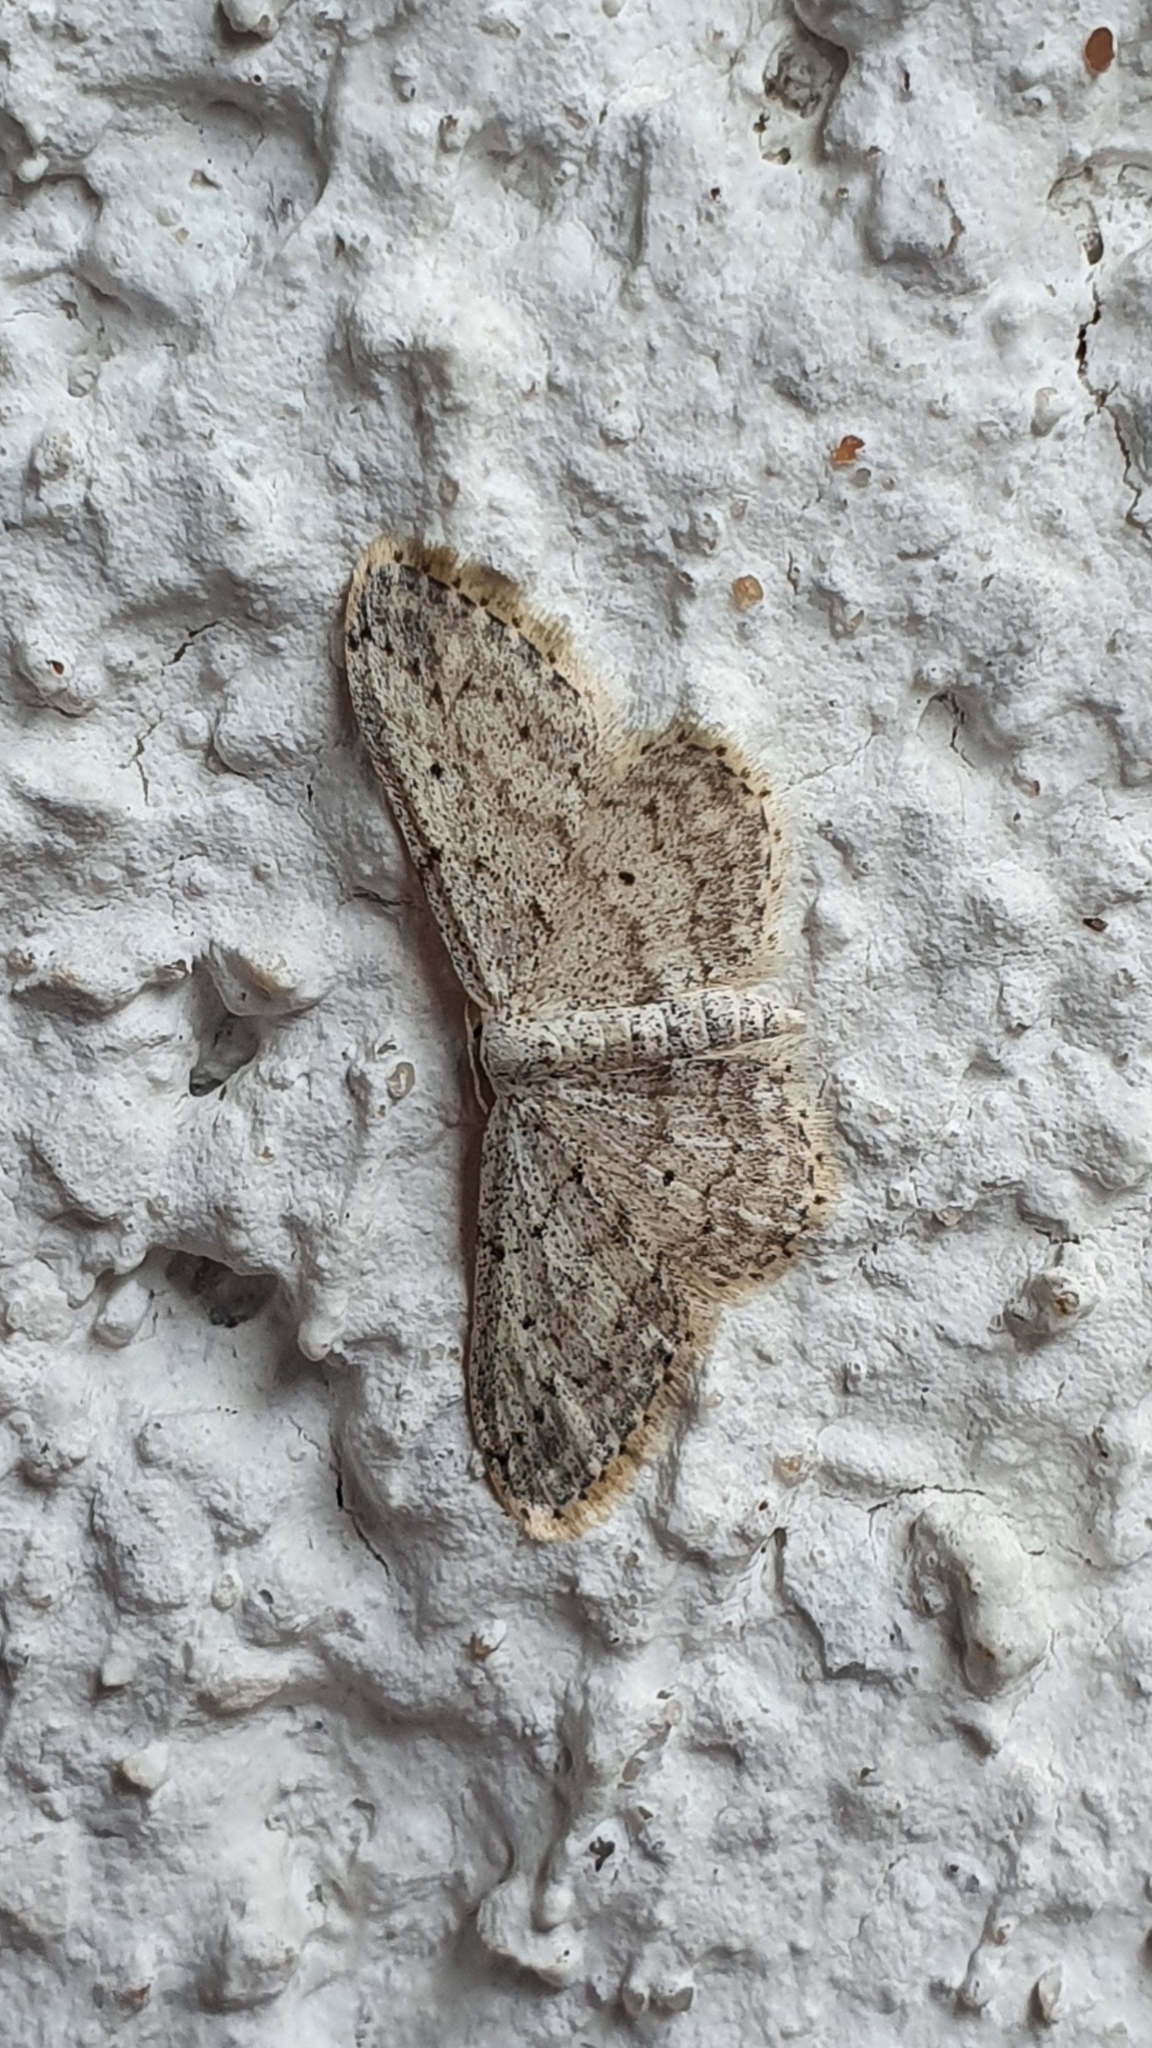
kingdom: Animalia
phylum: Arthropoda
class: Insecta
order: Lepidoptera
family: Geometridae
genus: Idaea
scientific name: Idaea seriata
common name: Small dusty wave
